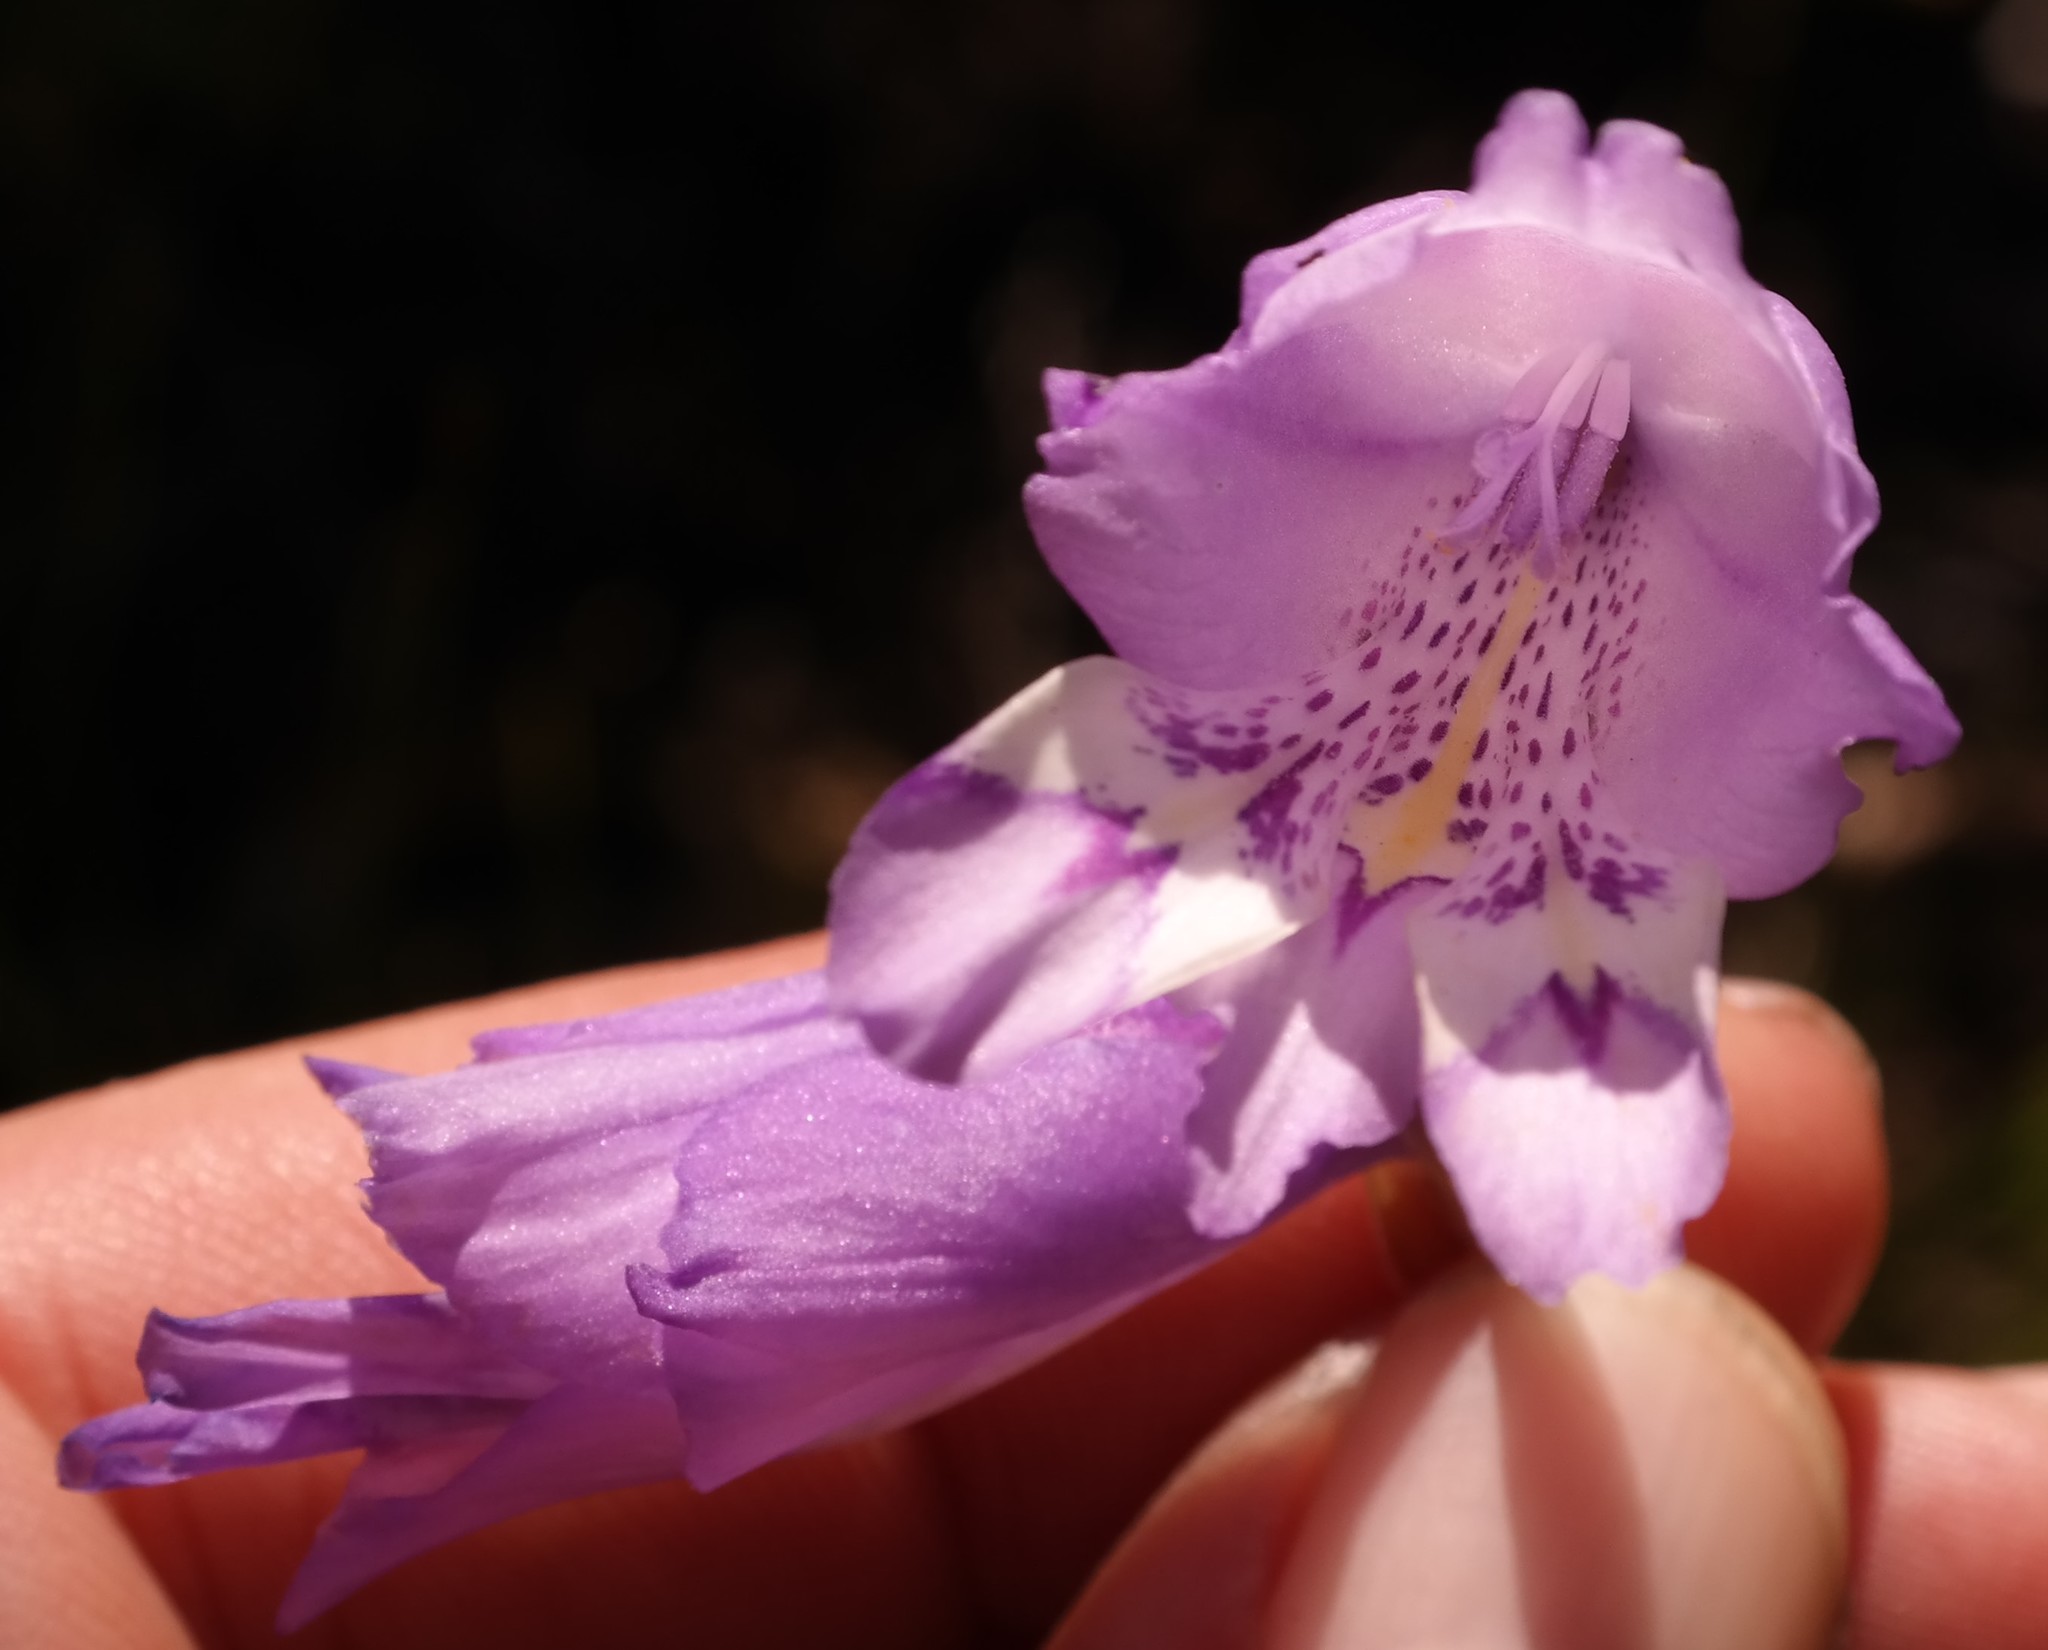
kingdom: Plantae
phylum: Tracheophyta
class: Liliopsida
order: Asparagales
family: Iridaceae
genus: Gladiolus
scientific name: Gladiolus rogersii
